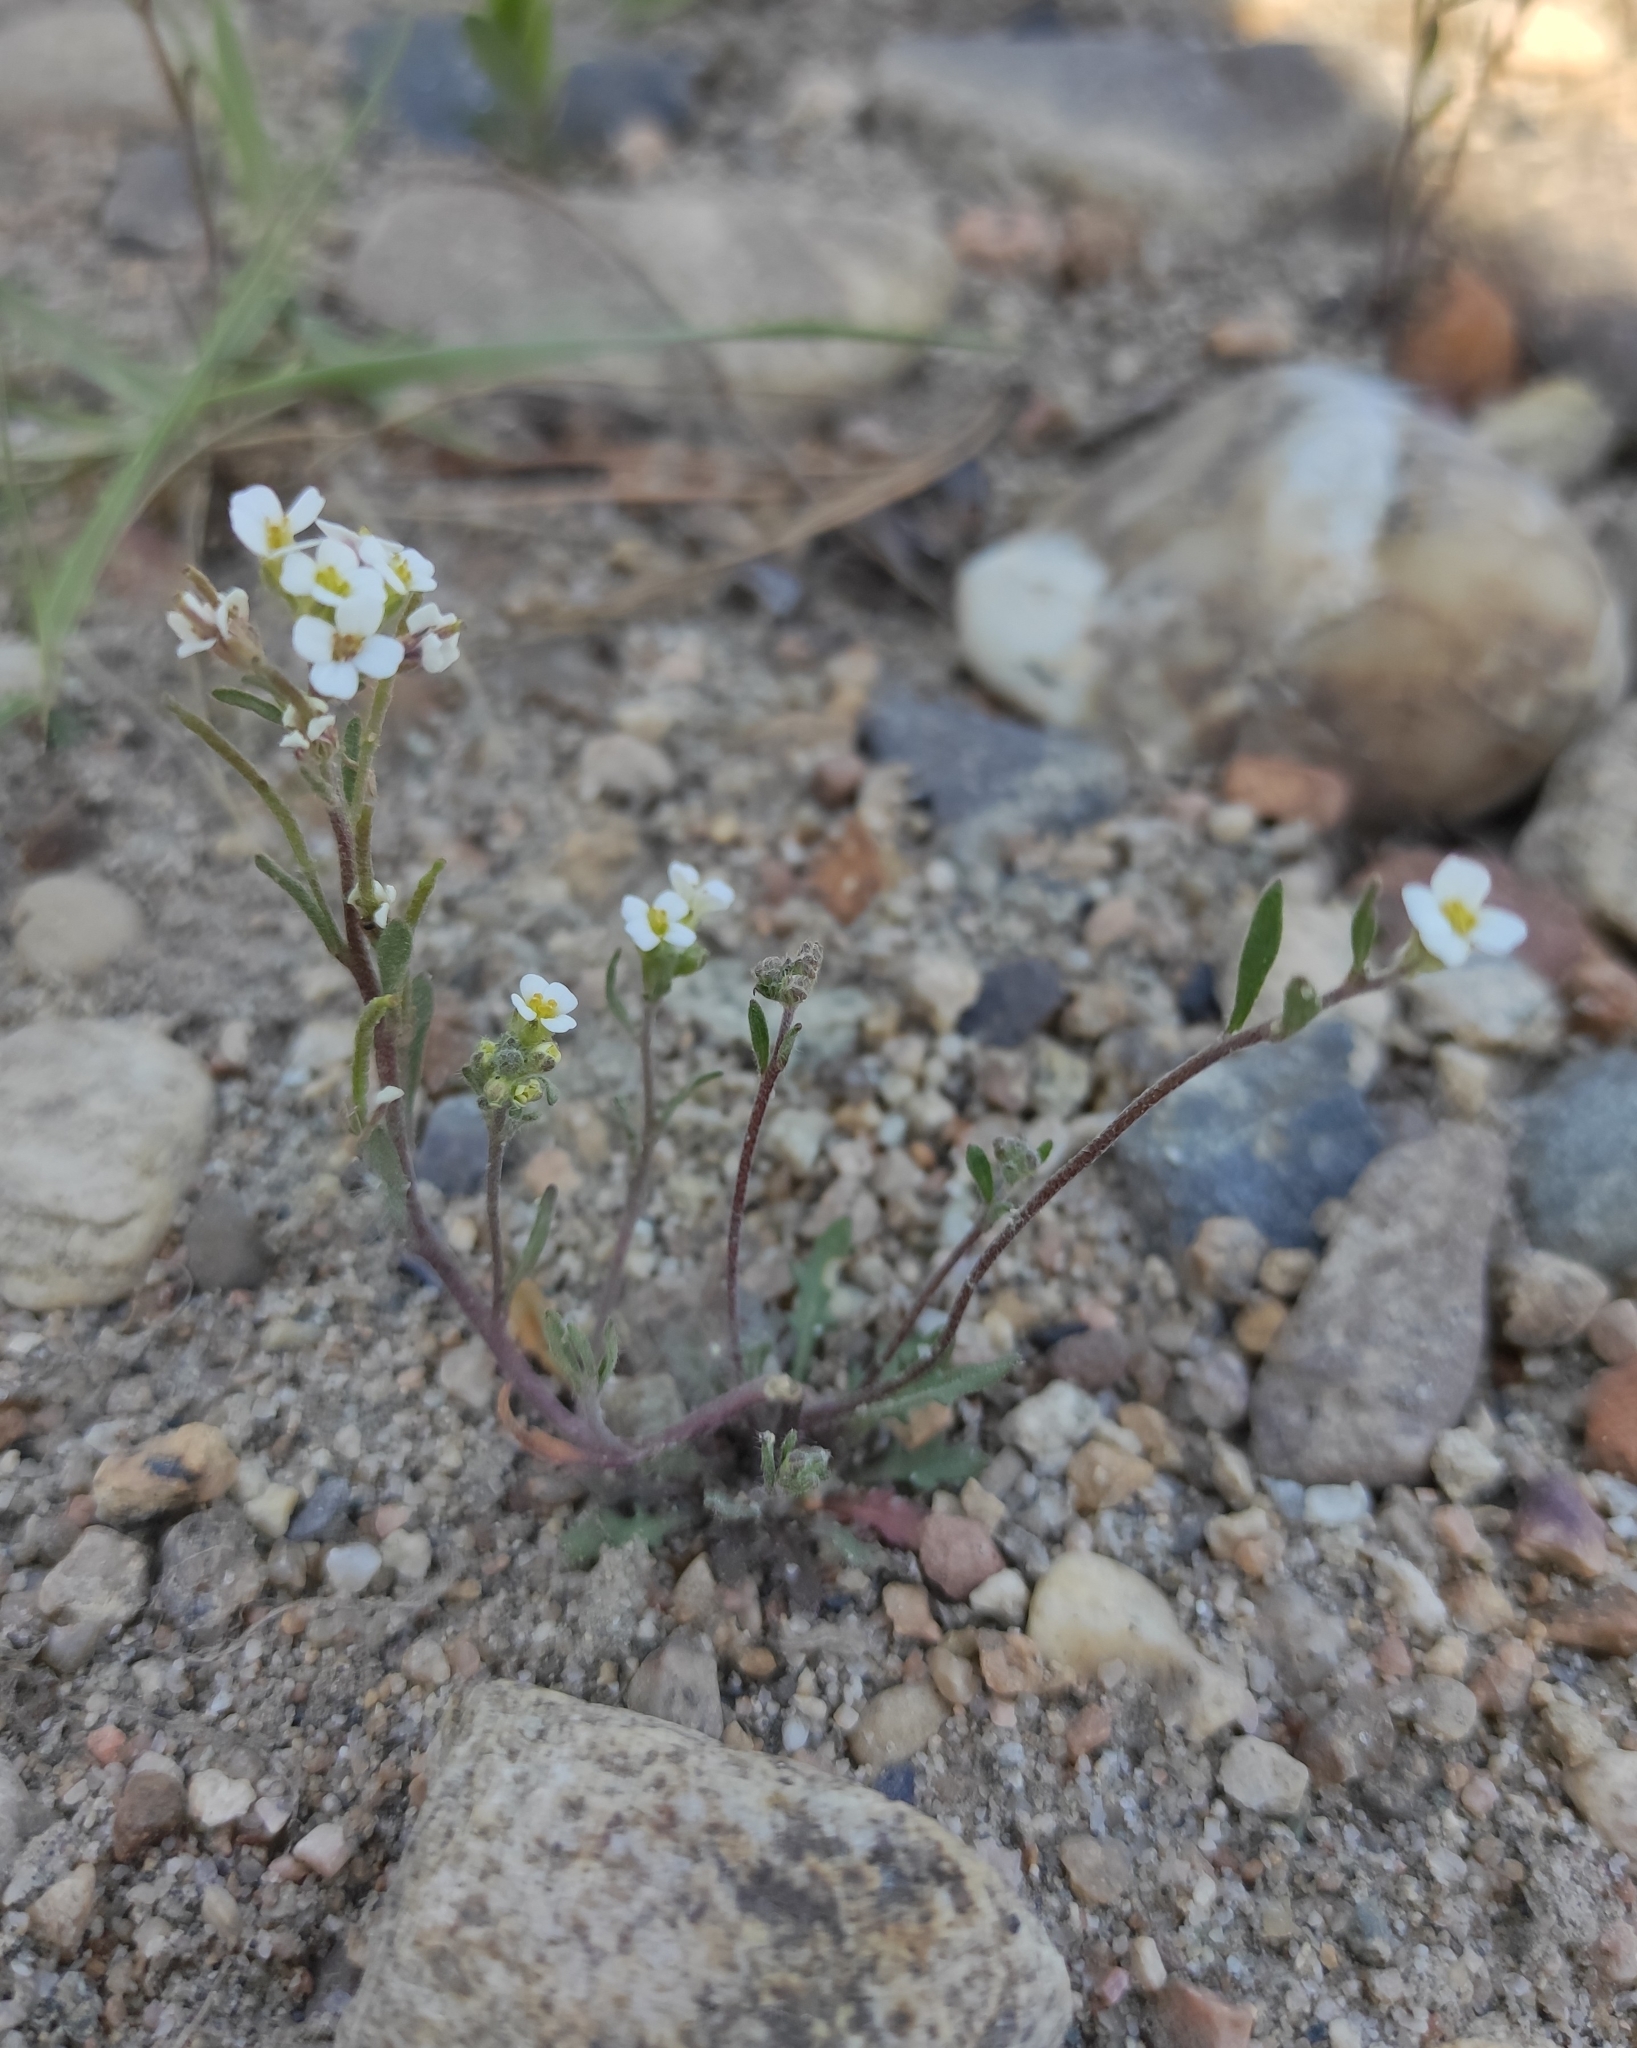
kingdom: Plantae
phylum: Tracheophyta
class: Magnoliopsida
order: Brassicales
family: Brassicaceae
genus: Dontostemon
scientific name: Dontostemon pinnatifidus
